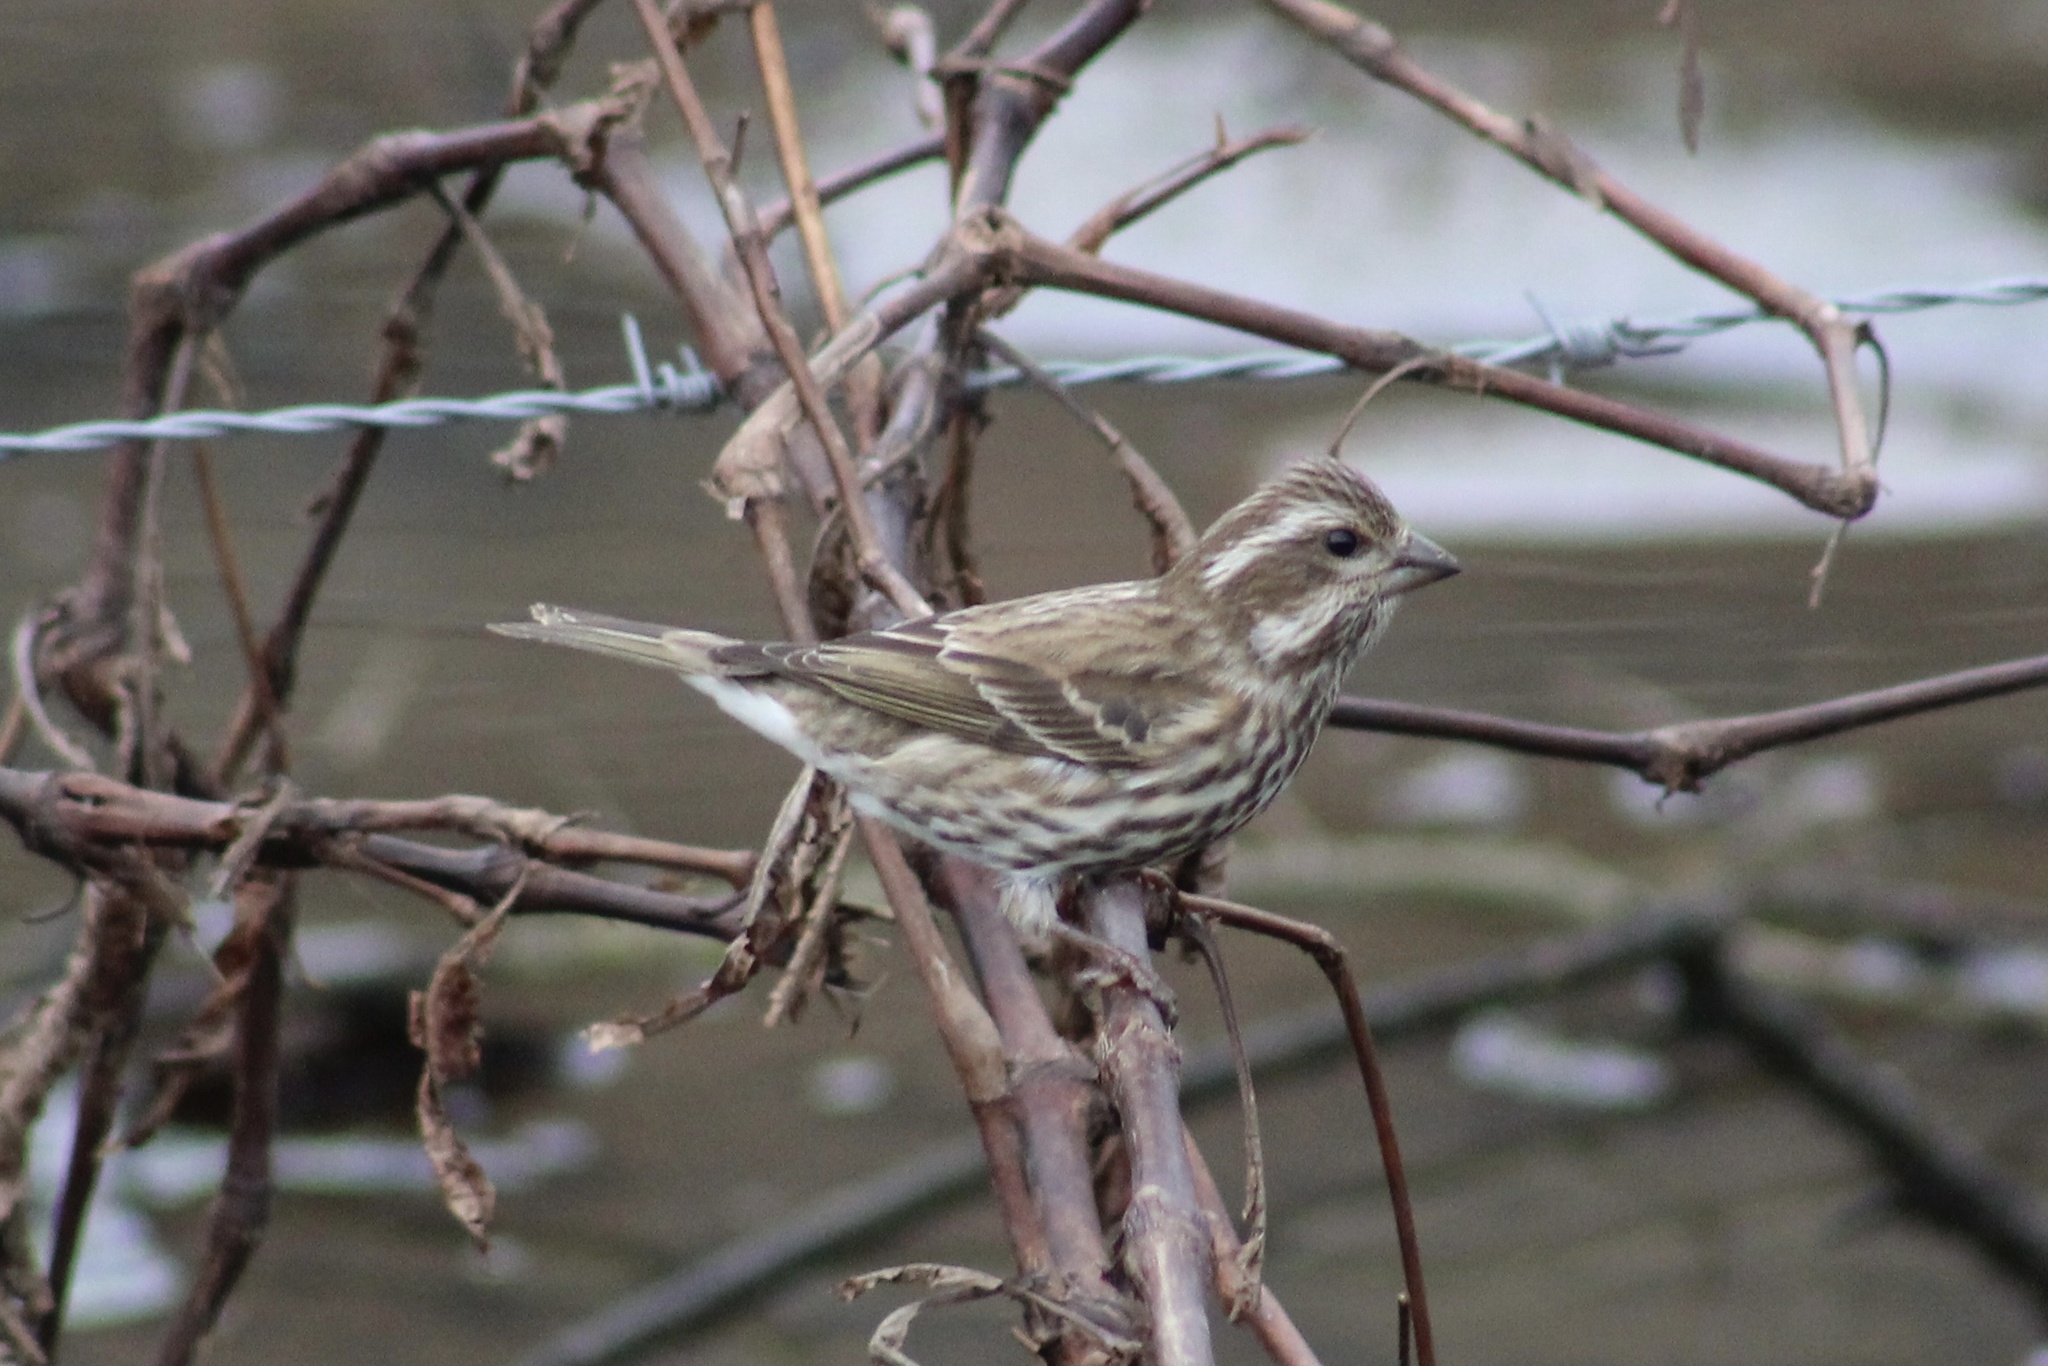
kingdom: Animalia
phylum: Chordata
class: Aves
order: Passeriformes
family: Fringillidae
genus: Haemorhous
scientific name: Haemorhous purpureus
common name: Purple finch
